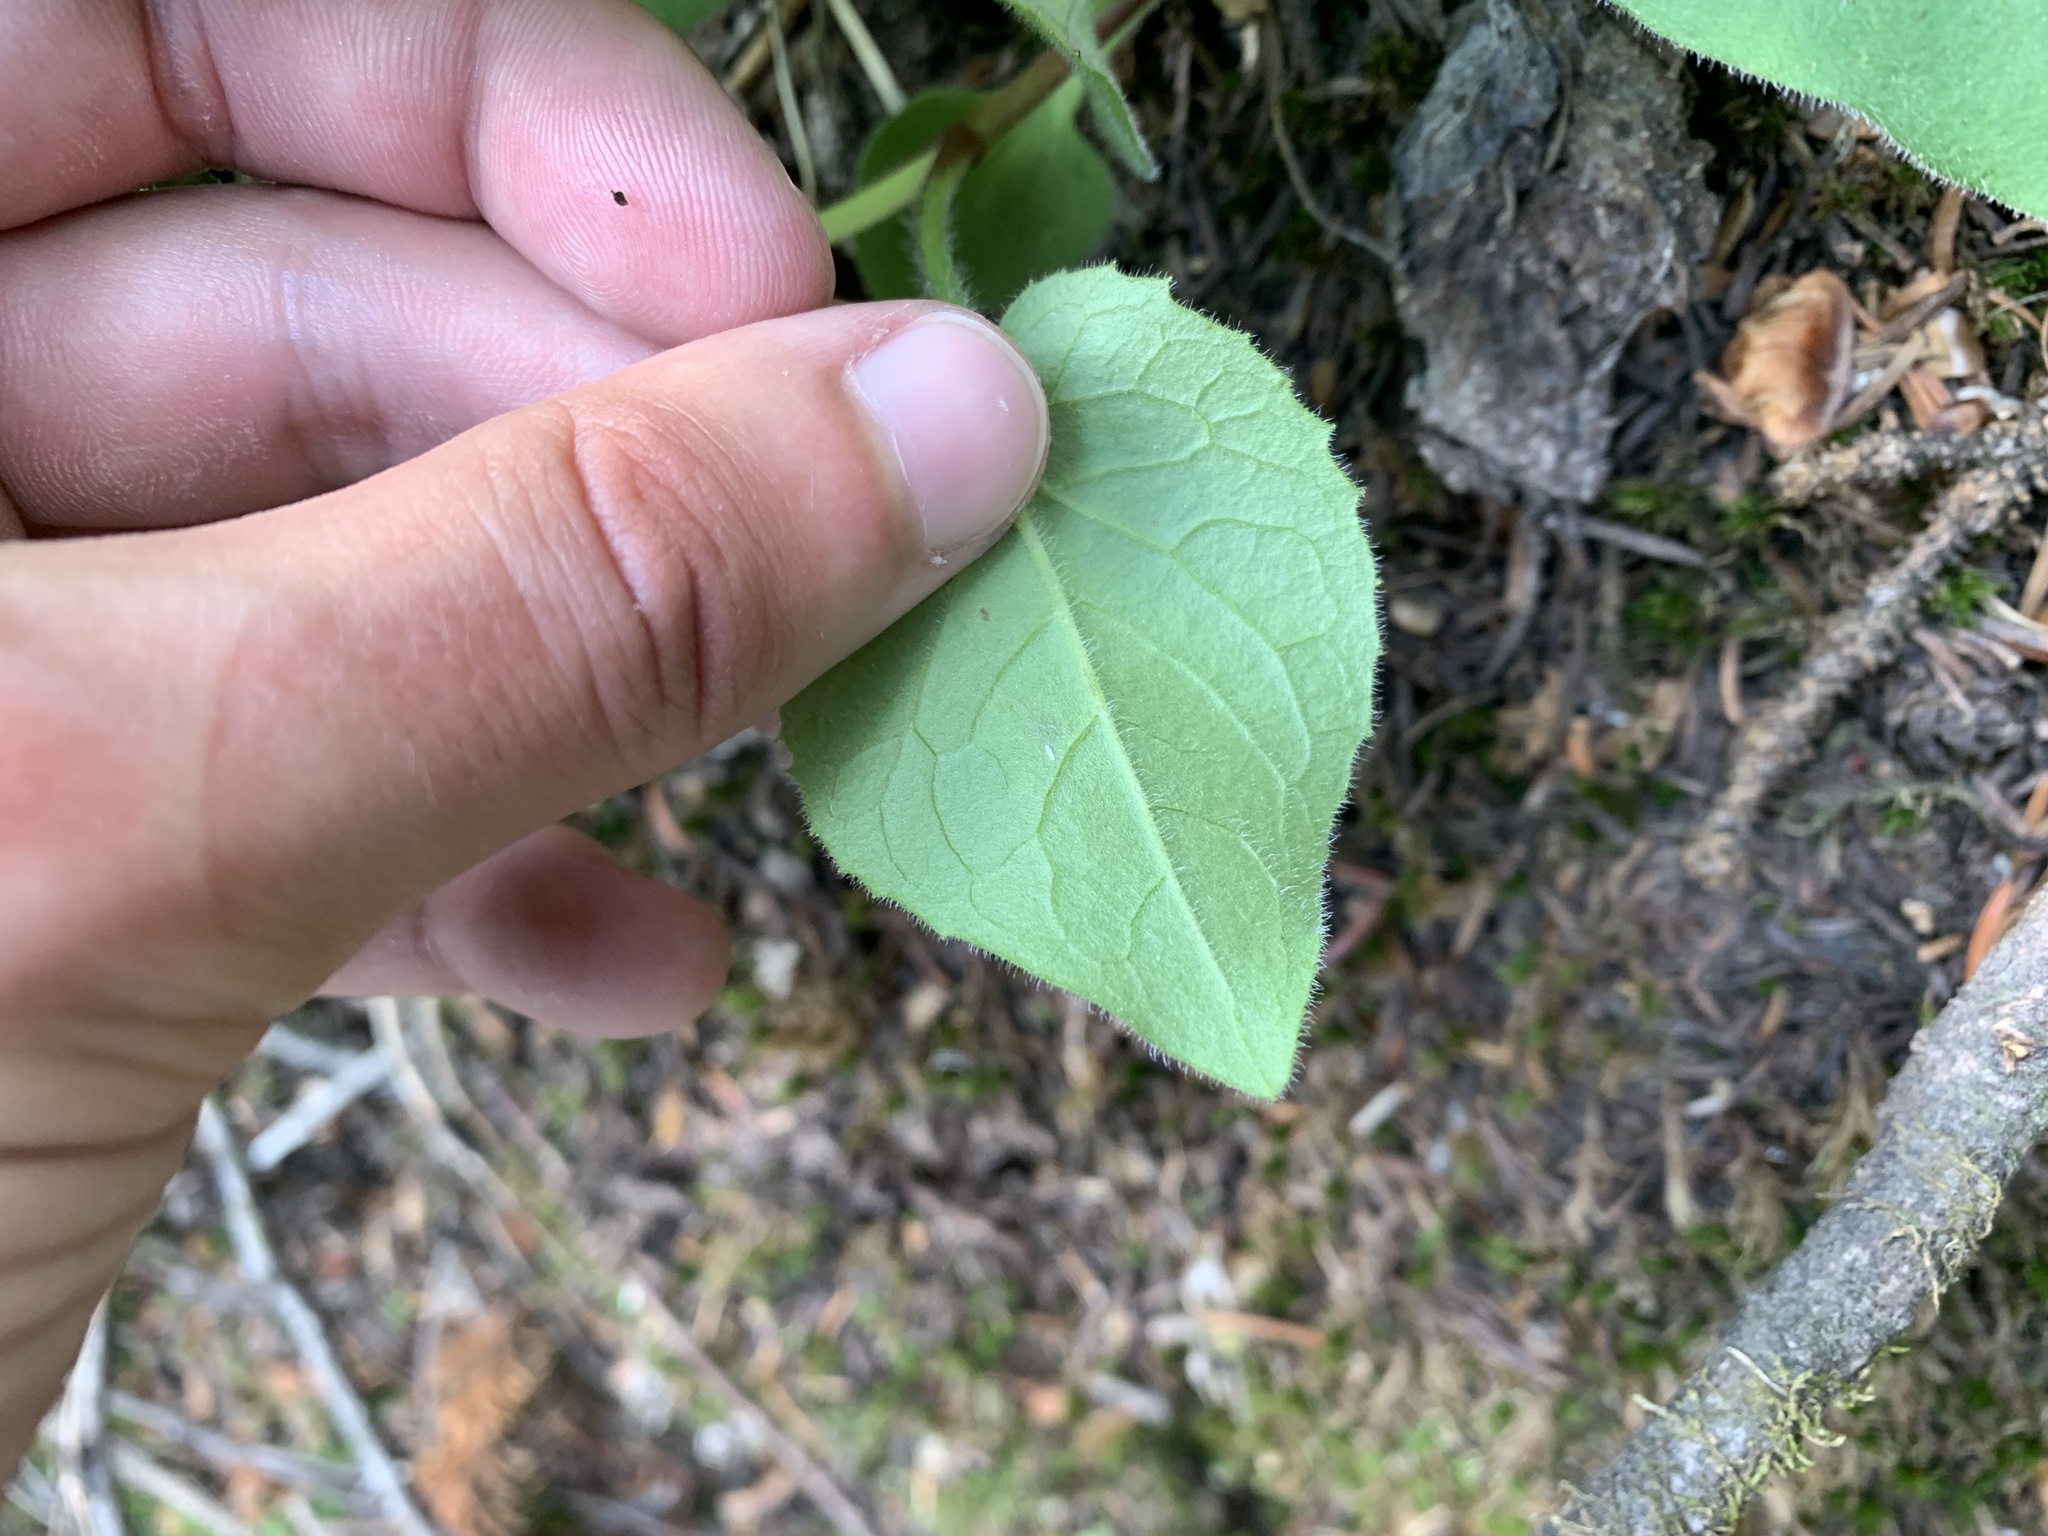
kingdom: Animalia
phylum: Arthropoda
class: Insecta
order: Diptera
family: Anthomyiidae
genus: Pegomya
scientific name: Pegomya depressiventris
